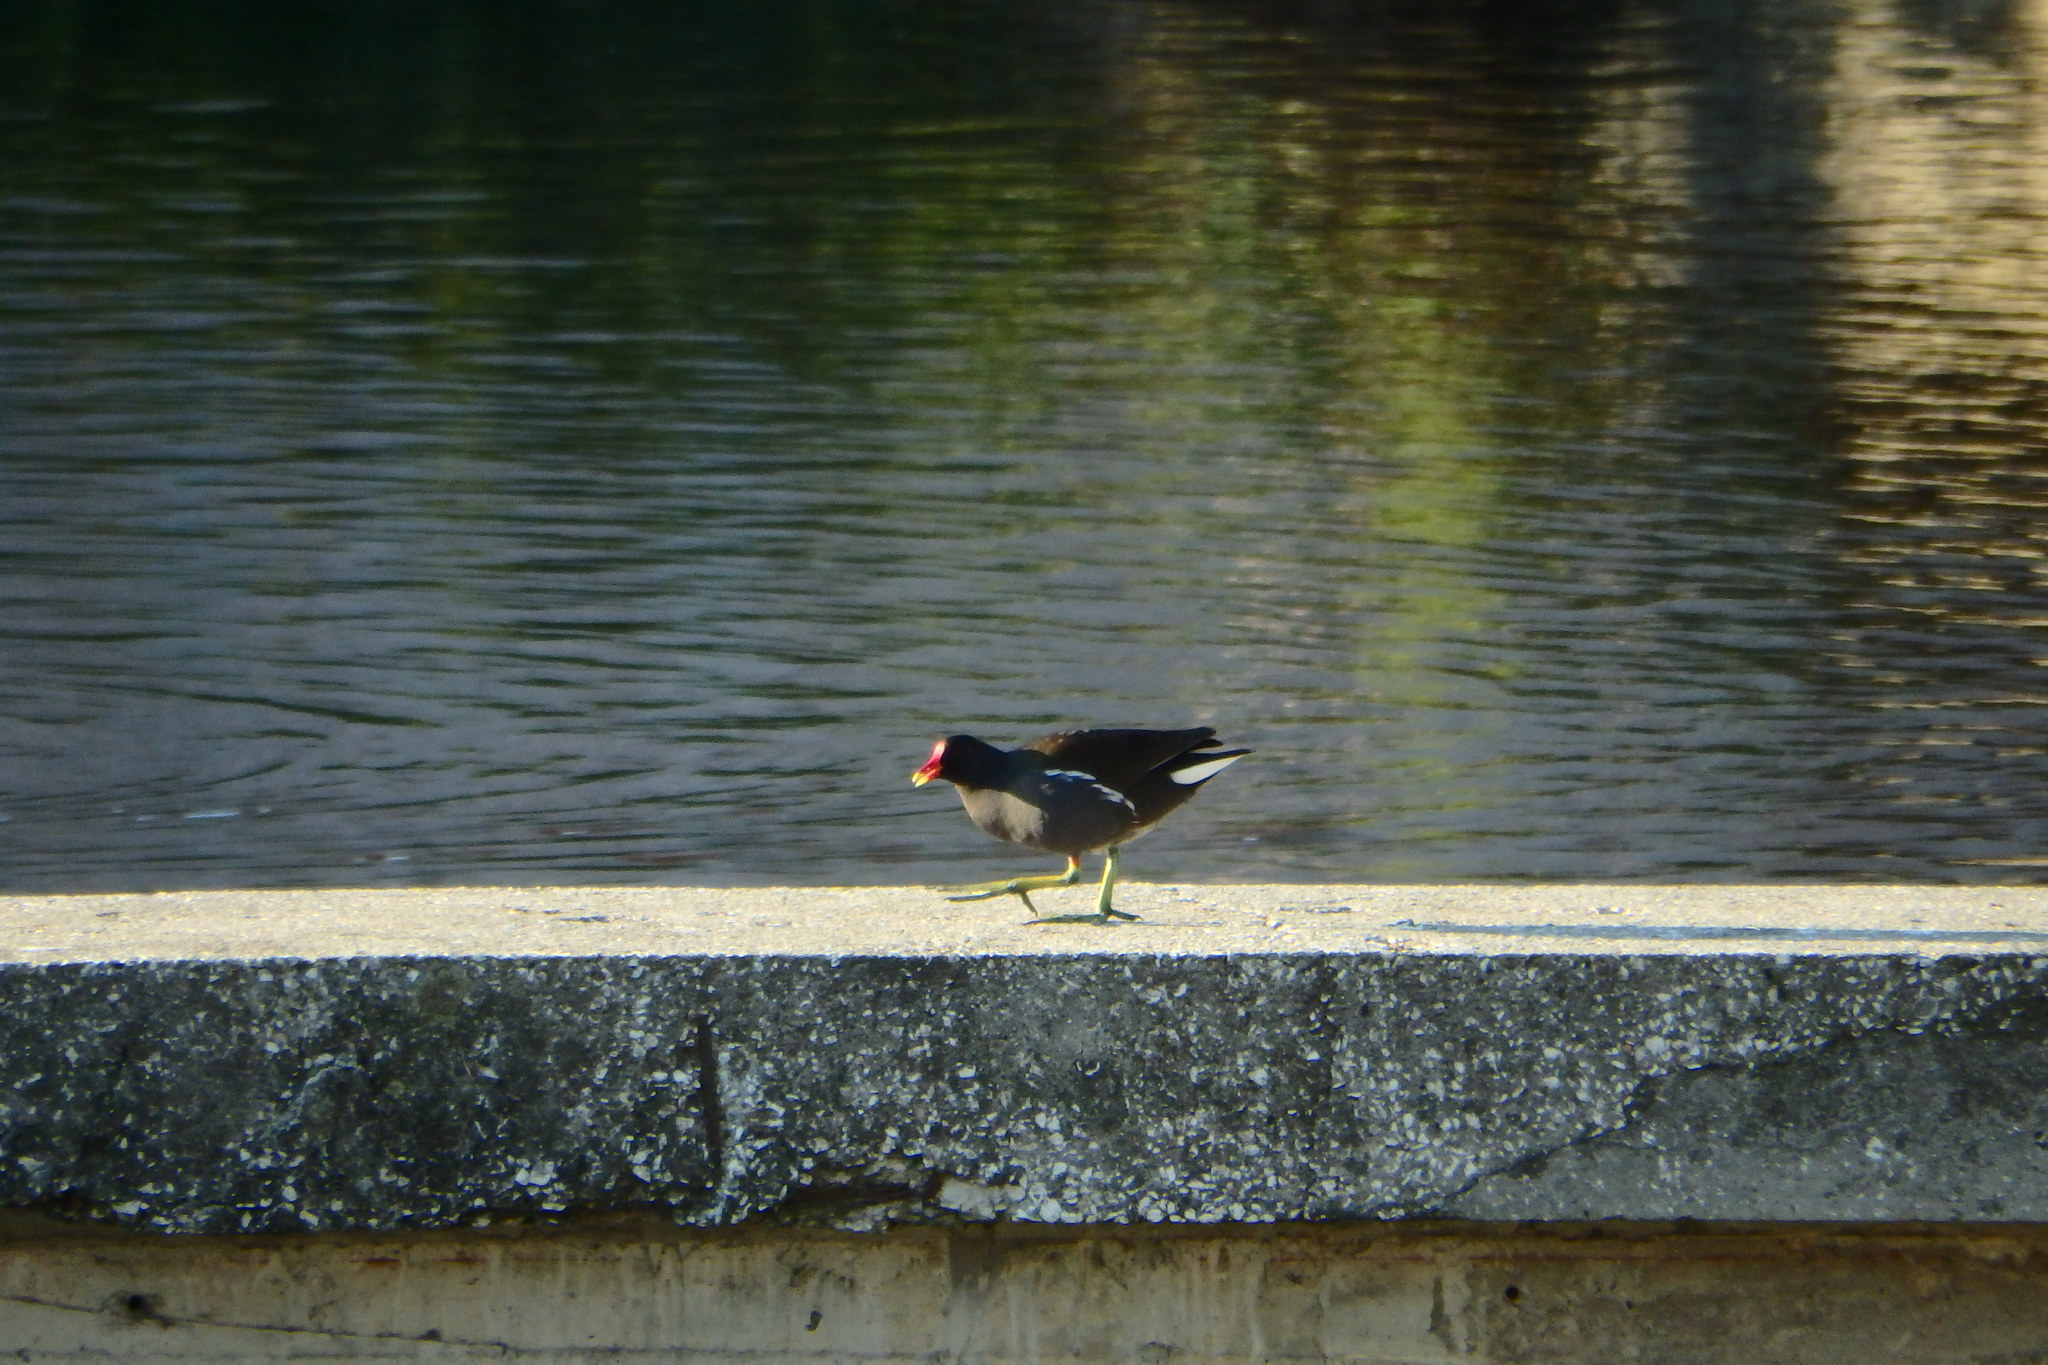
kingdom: Animalia
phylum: Chordata
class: Aves
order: Gruiformes
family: Rallidae
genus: Gallinula
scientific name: Gallinula chloropus
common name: Common moorhen
